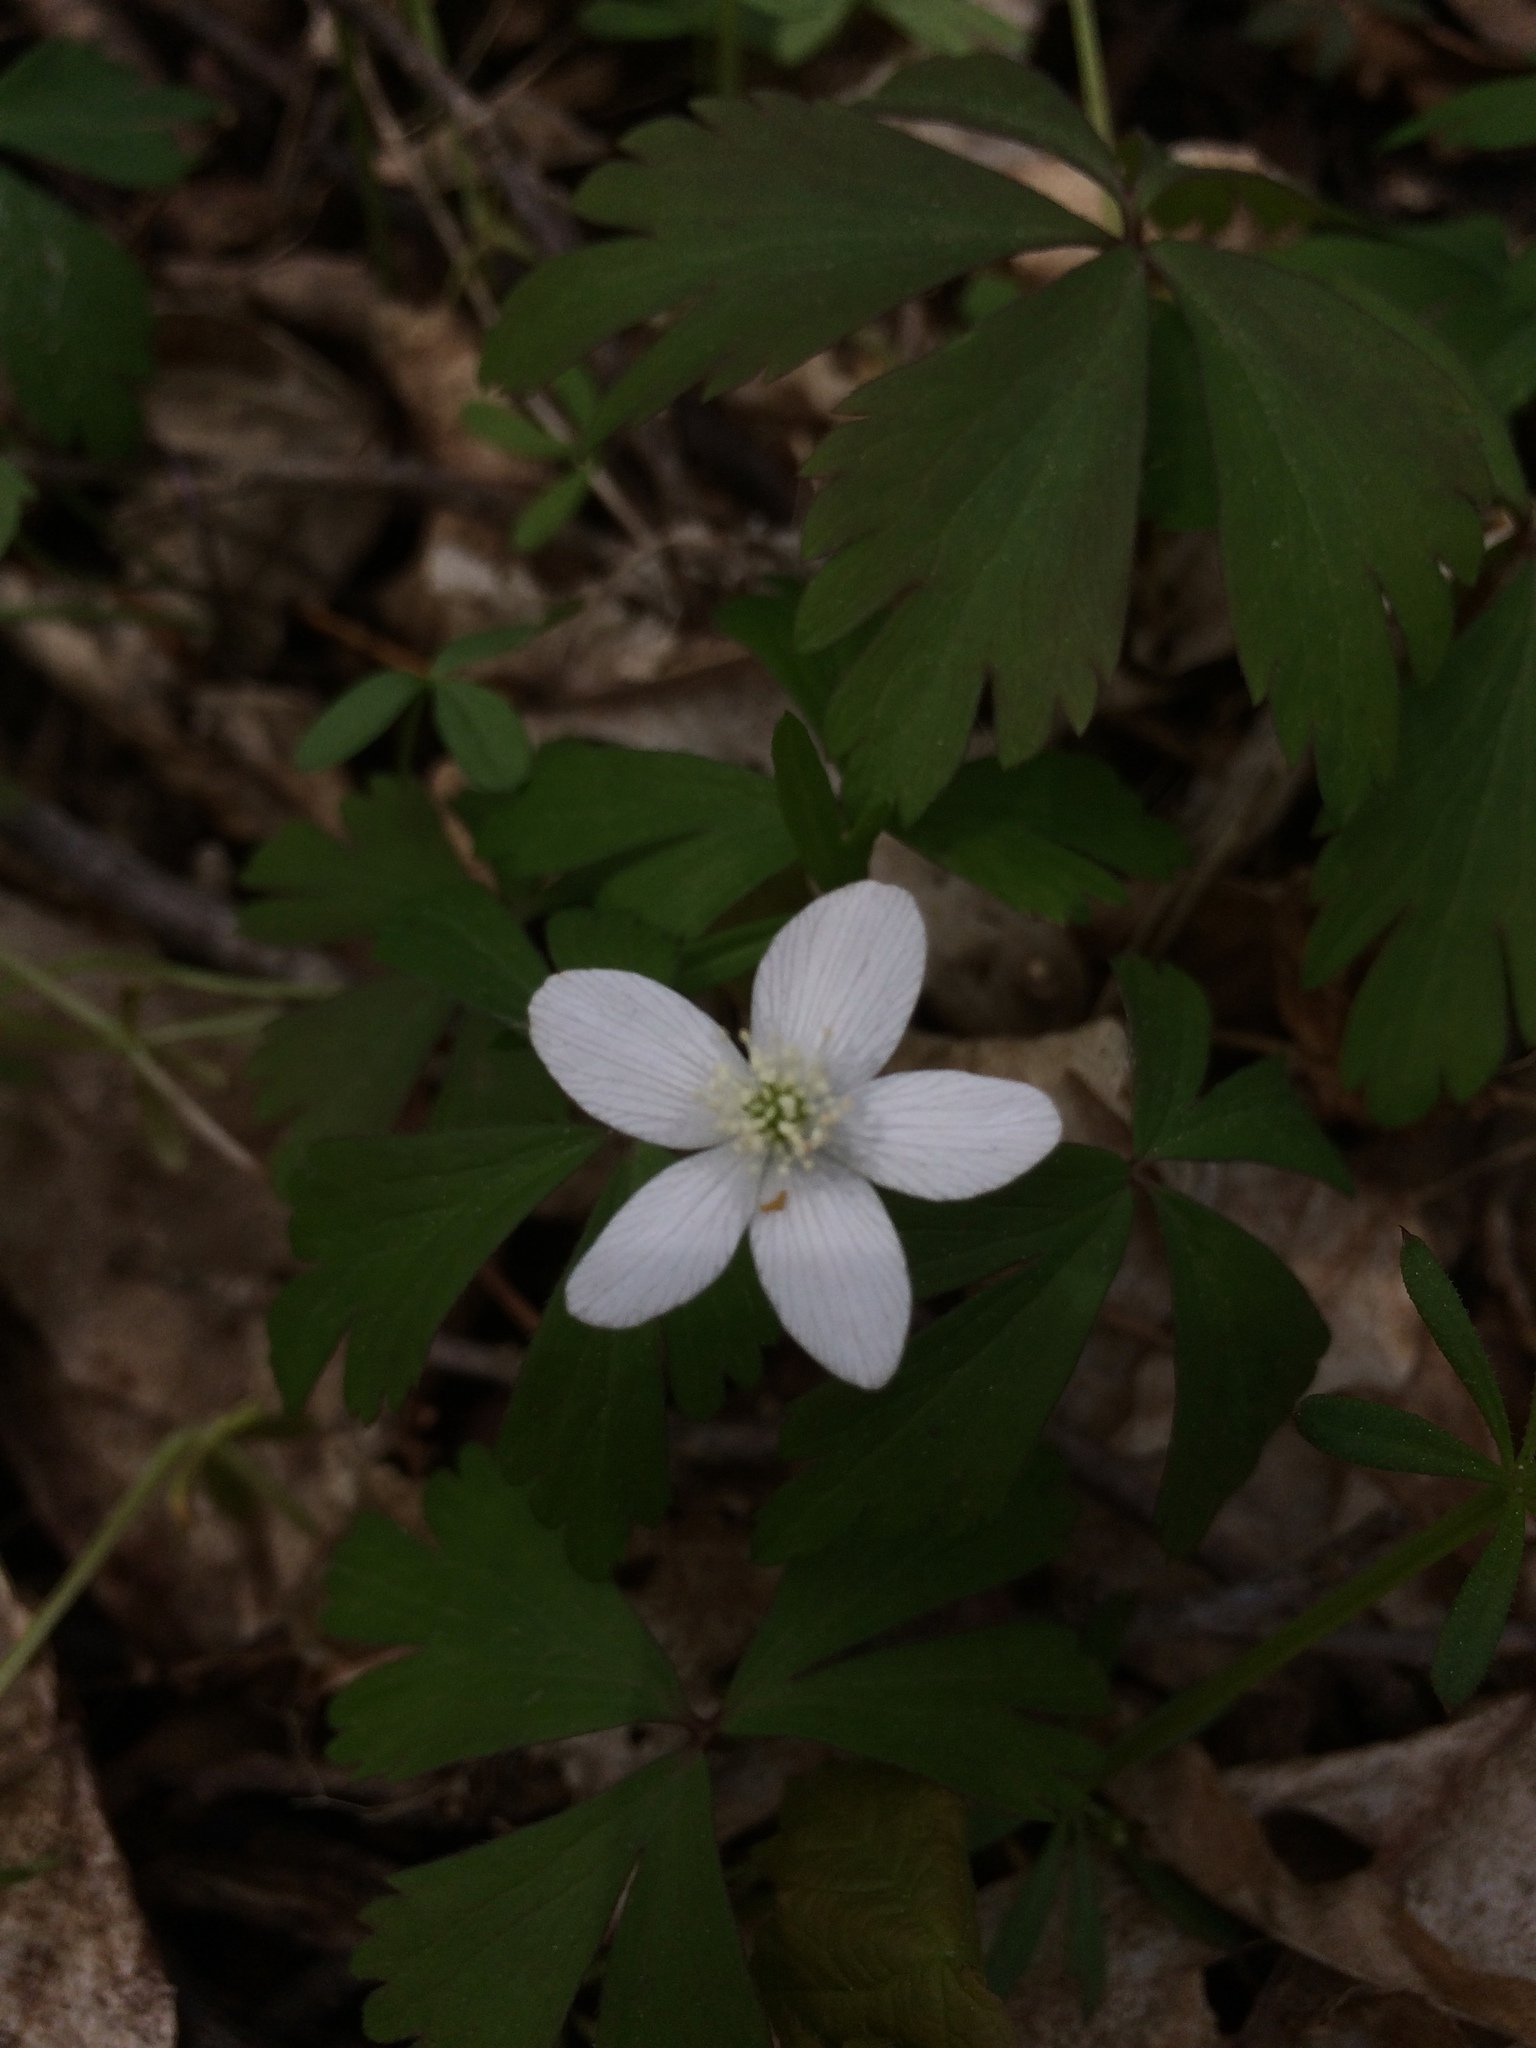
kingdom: Plantae
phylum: Tracheophyta
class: Magnoliopsida
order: Ranunculales
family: Ranunculaceae
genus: Anemone
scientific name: Anemone quinquefolia
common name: Wood anemone
